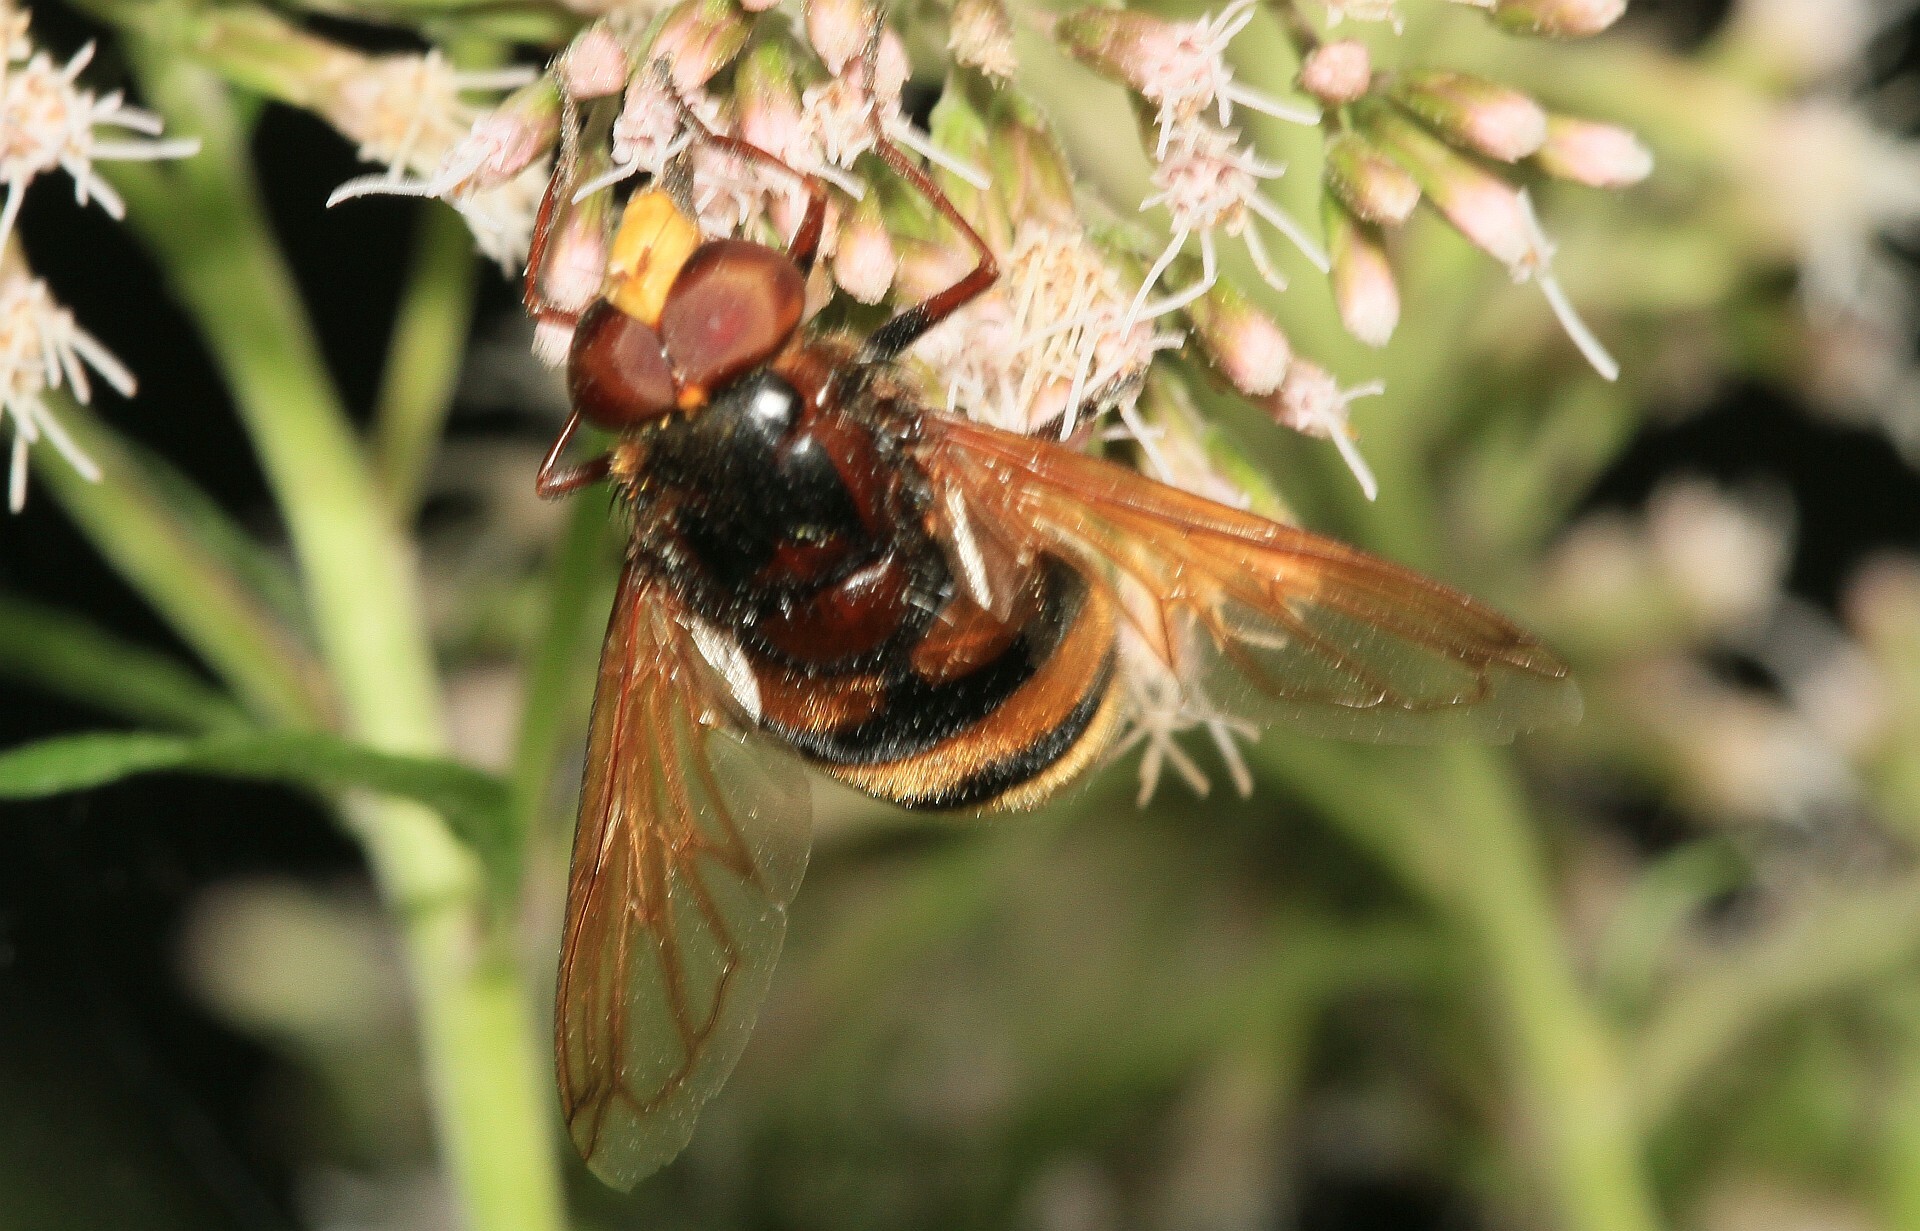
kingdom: Animalia
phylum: Arthropoda
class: Insecta
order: Diptera
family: Syrphidae
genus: Volucella
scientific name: Volucella zonaria
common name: Hornet hoverfly
